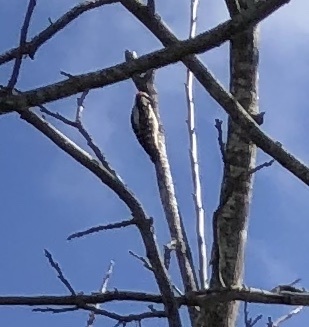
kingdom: Animalia
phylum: Chordata
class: Aves
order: Piciformes
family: Picidae
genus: Dryobates
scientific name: Dryobates pubescens
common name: Downy woodpecker
